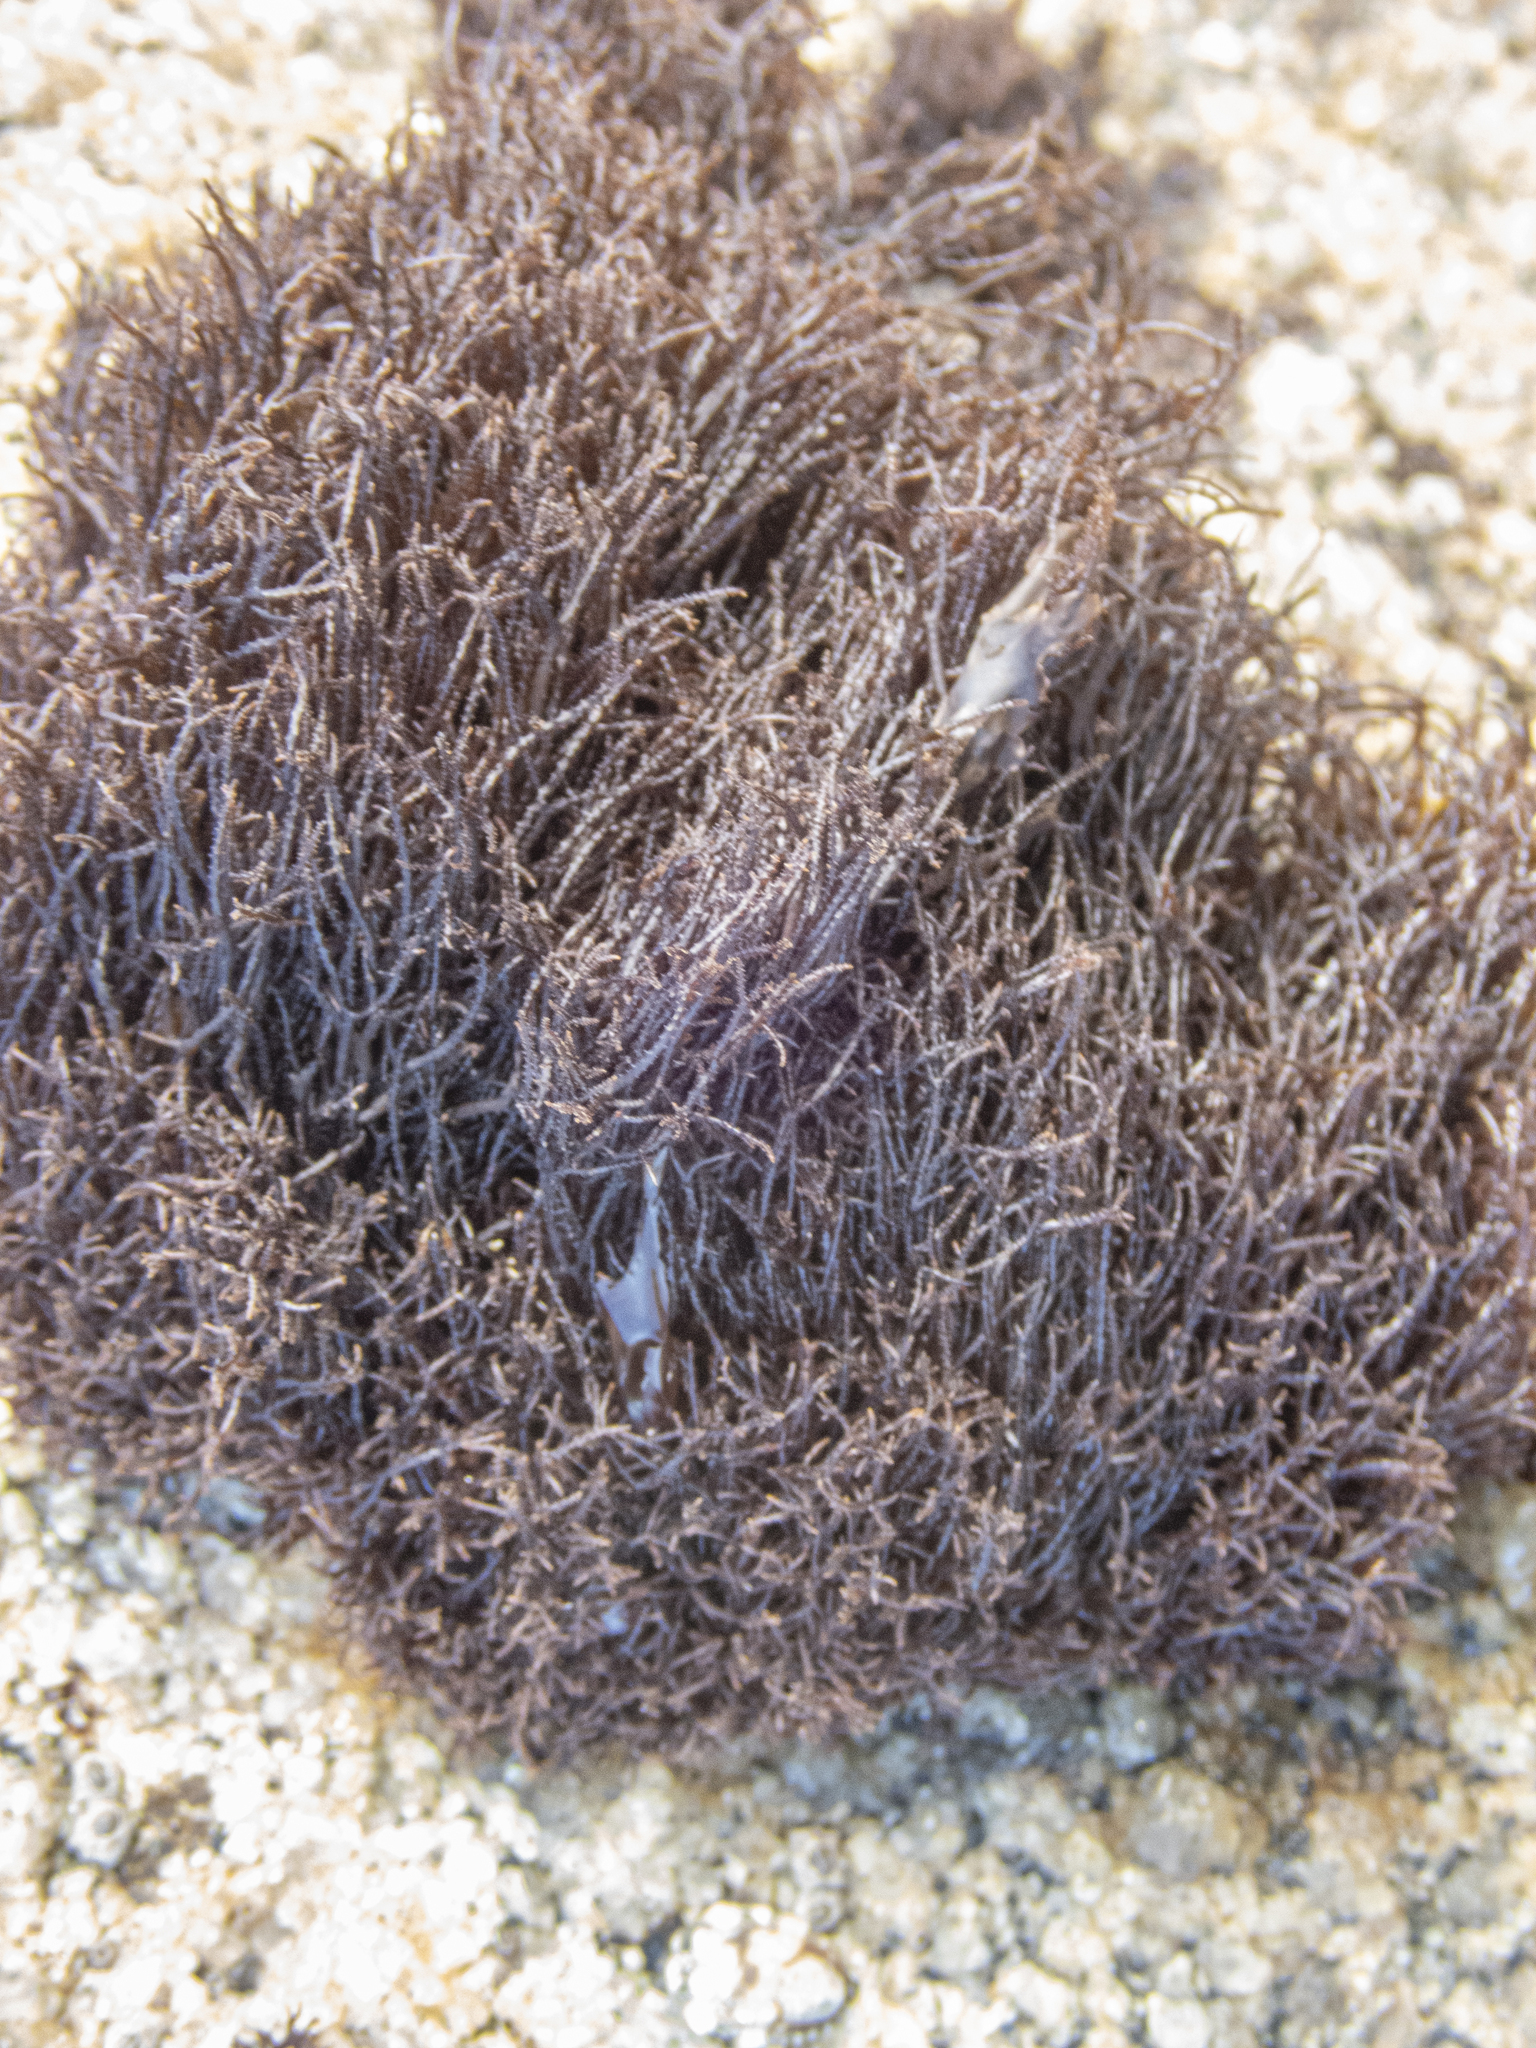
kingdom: Plantae
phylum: Rhodophyta
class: Florideophyceae
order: Gigartinales
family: Endocladiaceae
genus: Endocladia
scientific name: Endocladia muricata
